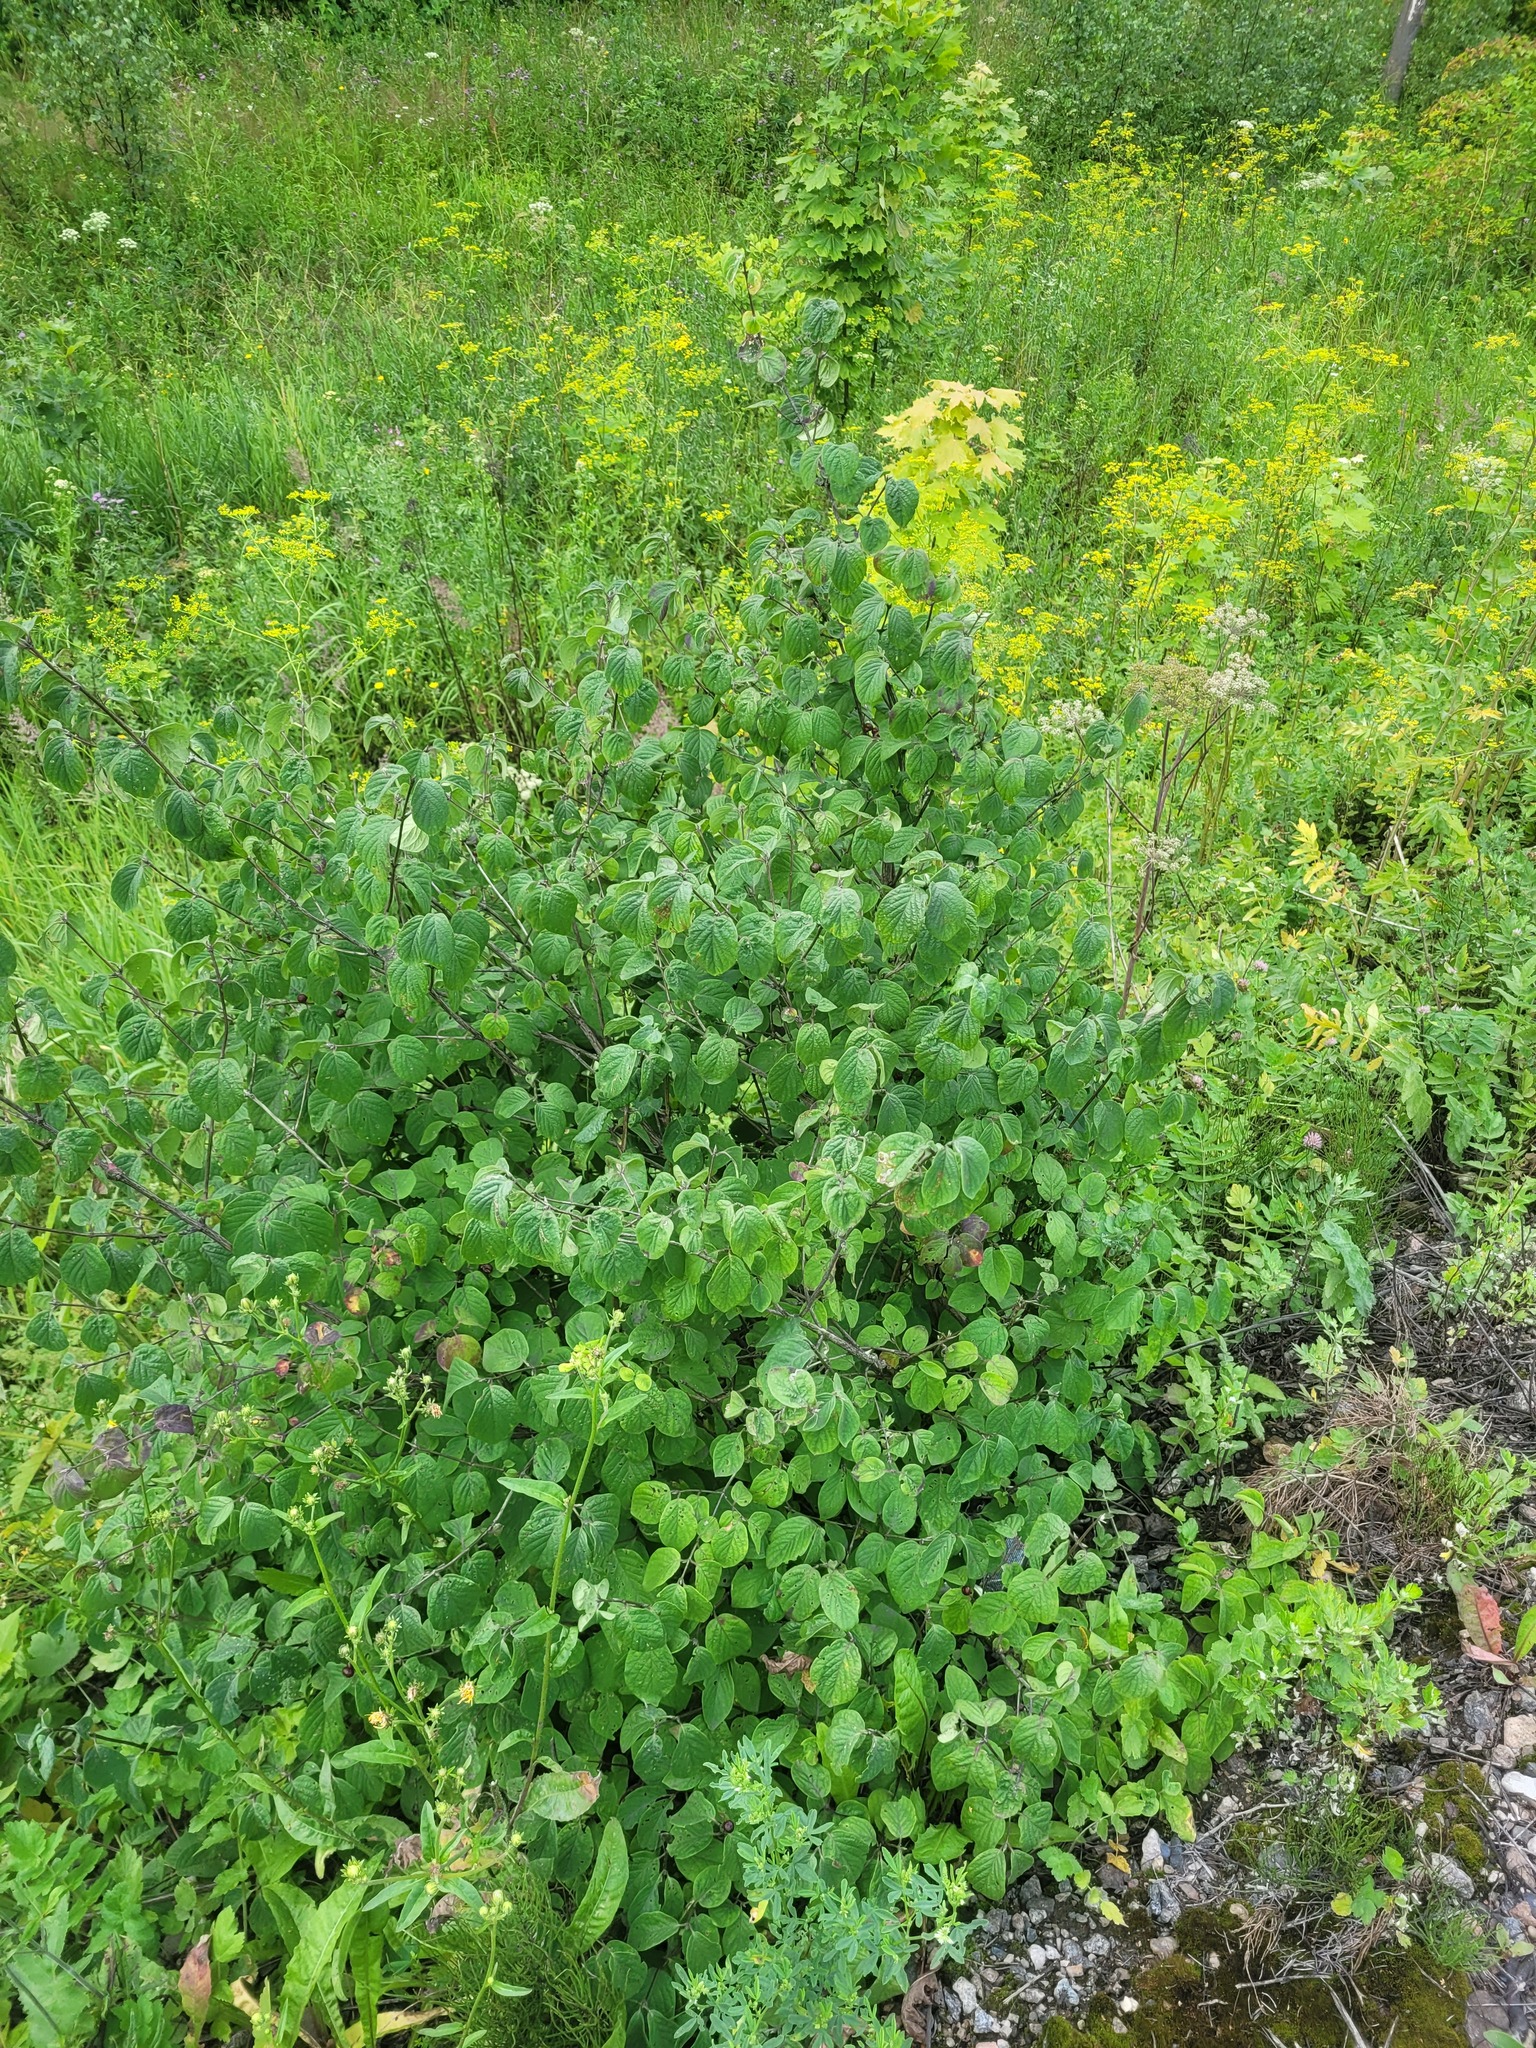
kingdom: Plantae
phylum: Tracheophyta
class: Magnoliopsida
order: Dipsacales
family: Caprifoliaceae
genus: Lonicera
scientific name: Lonicera xylosteum
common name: Fly honeysuckle
